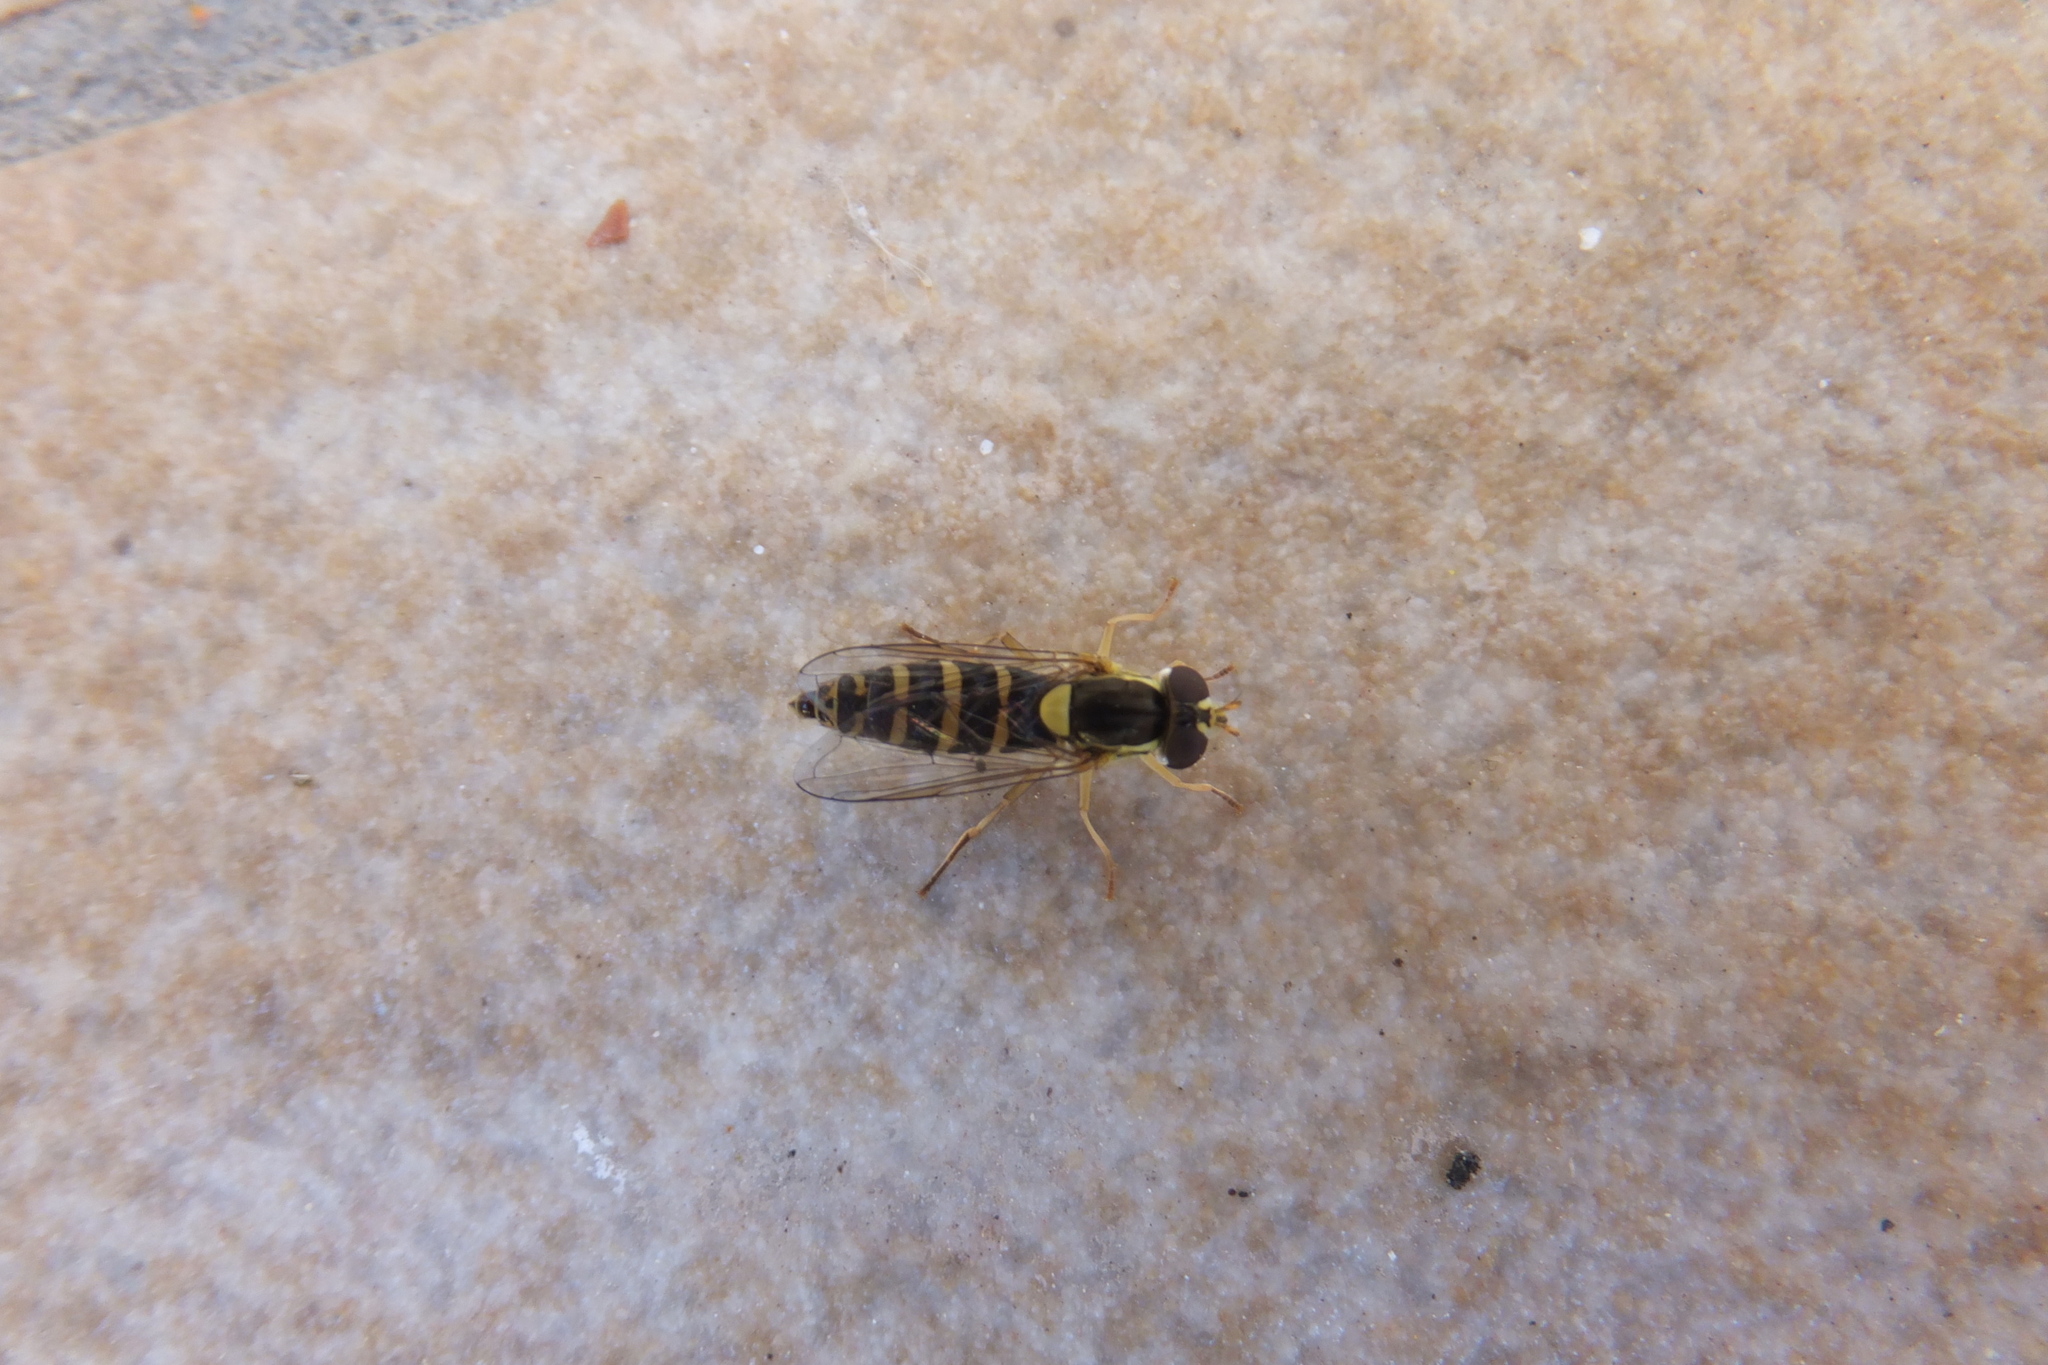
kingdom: Animalia
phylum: Arthropoda
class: Insecta
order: Diptera
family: Syrphidae
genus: Sphaerophoria
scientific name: Sphaerophoria
